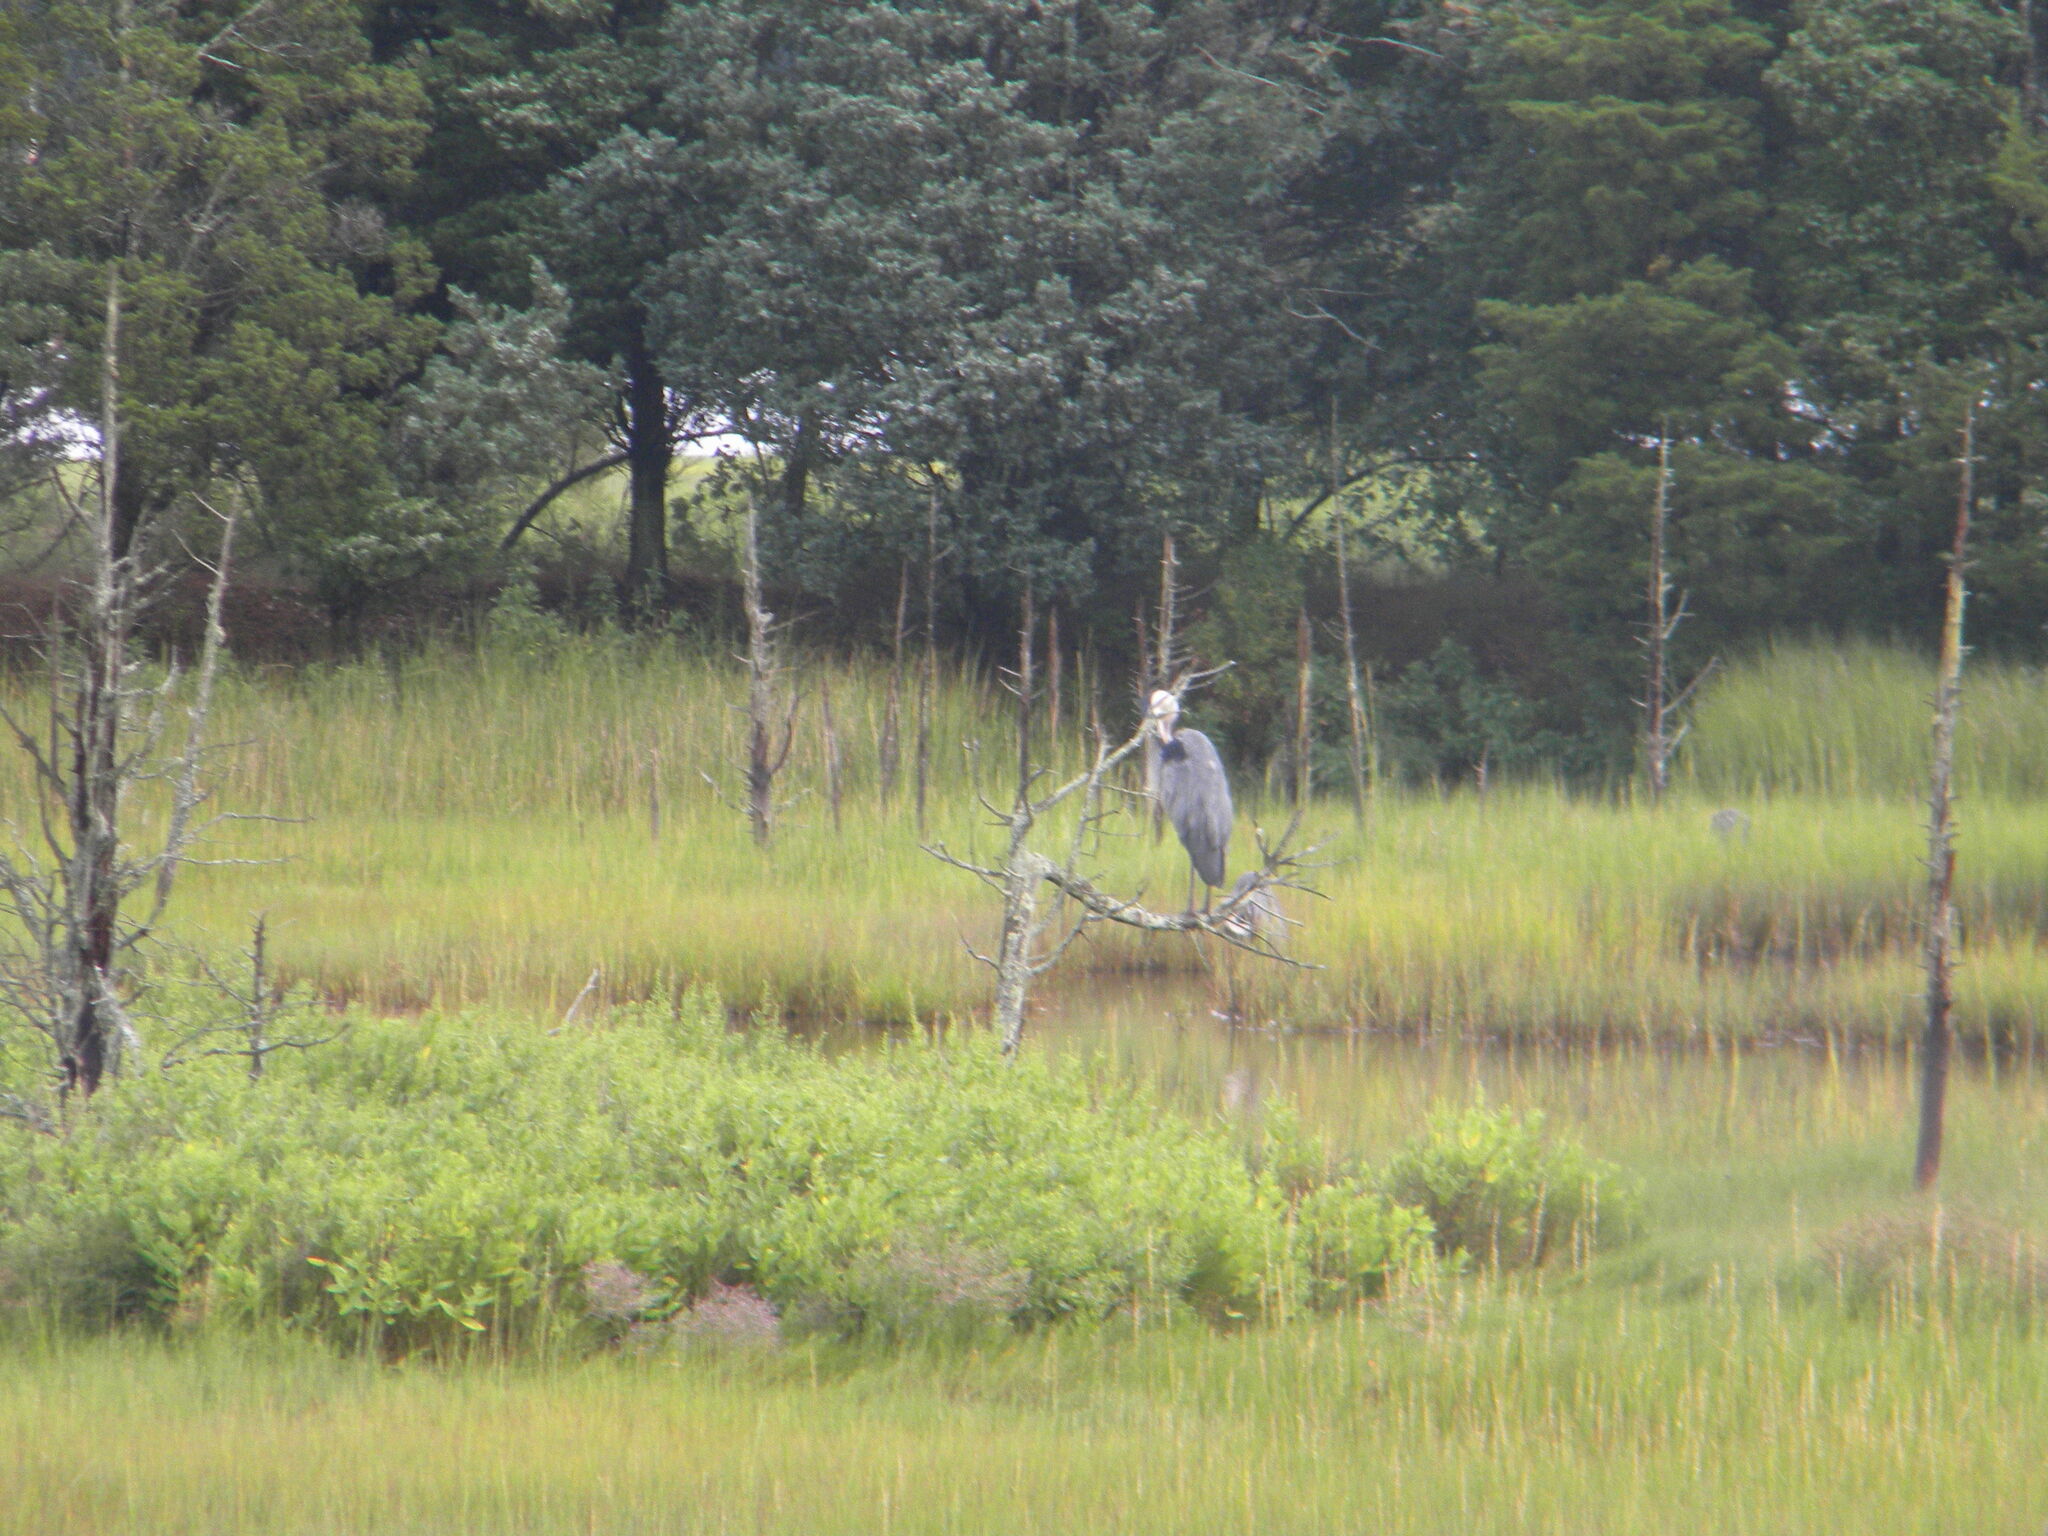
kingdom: Animalia
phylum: Chordata
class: Aves
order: Pelecaniformes
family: Ardeidae
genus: Ardea
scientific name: Ardea herodias
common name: Great blue heron
